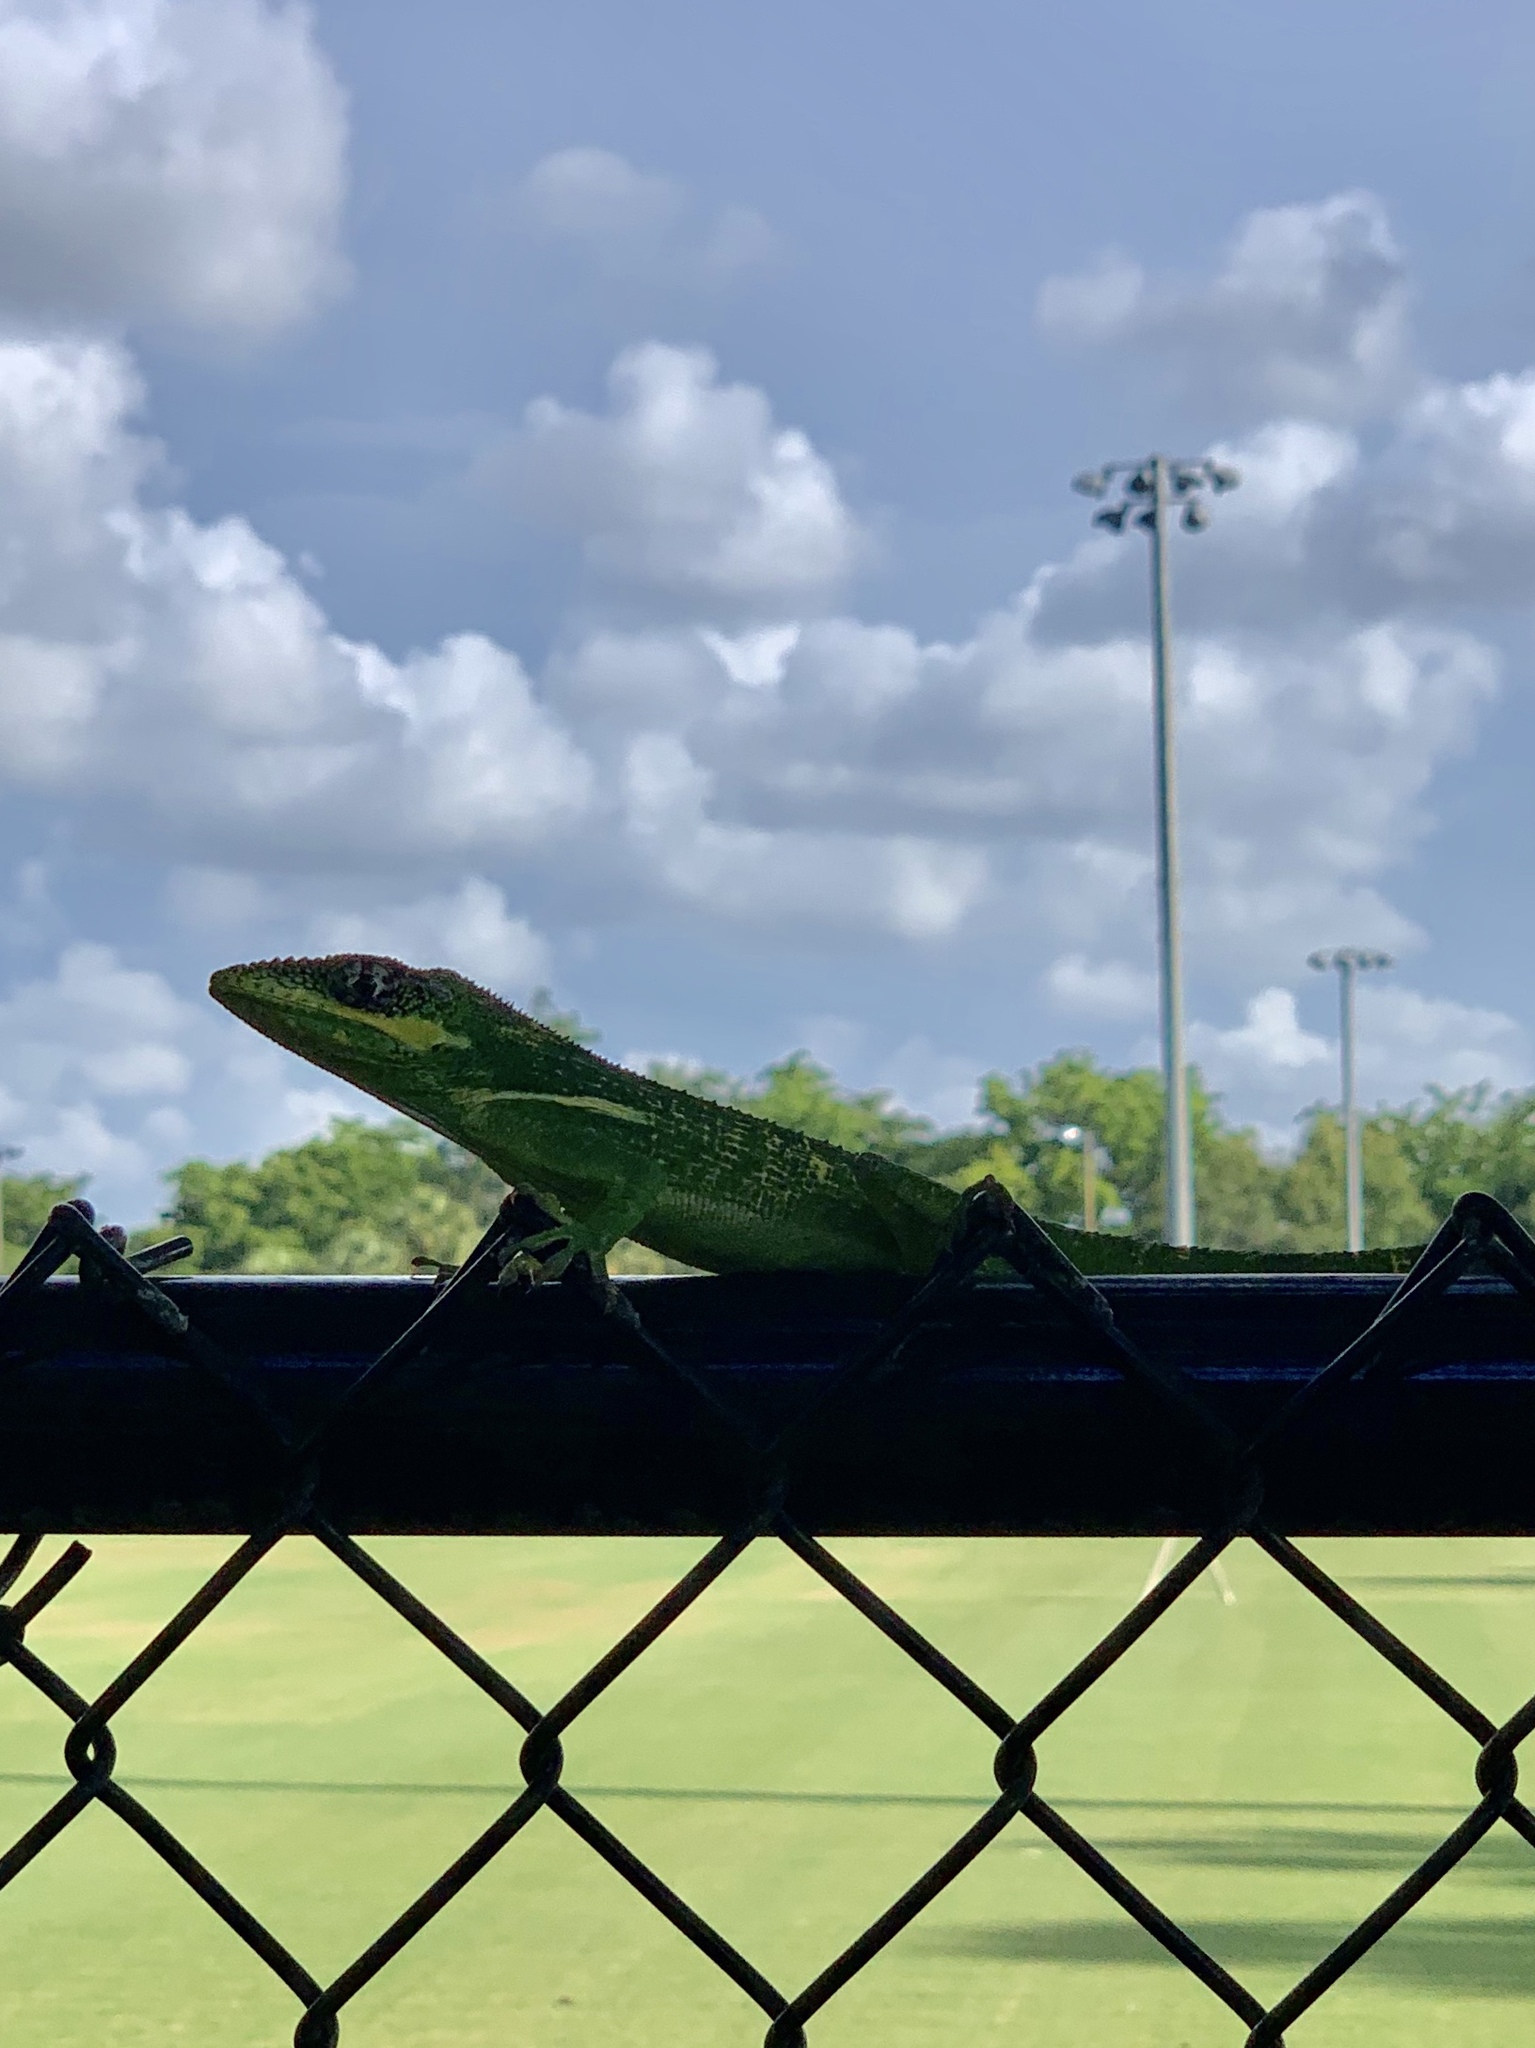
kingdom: Animalia
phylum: Chordata
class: Squamata
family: Dactyloidae
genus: Anolis
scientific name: Anolis equestris
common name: Knight anole
